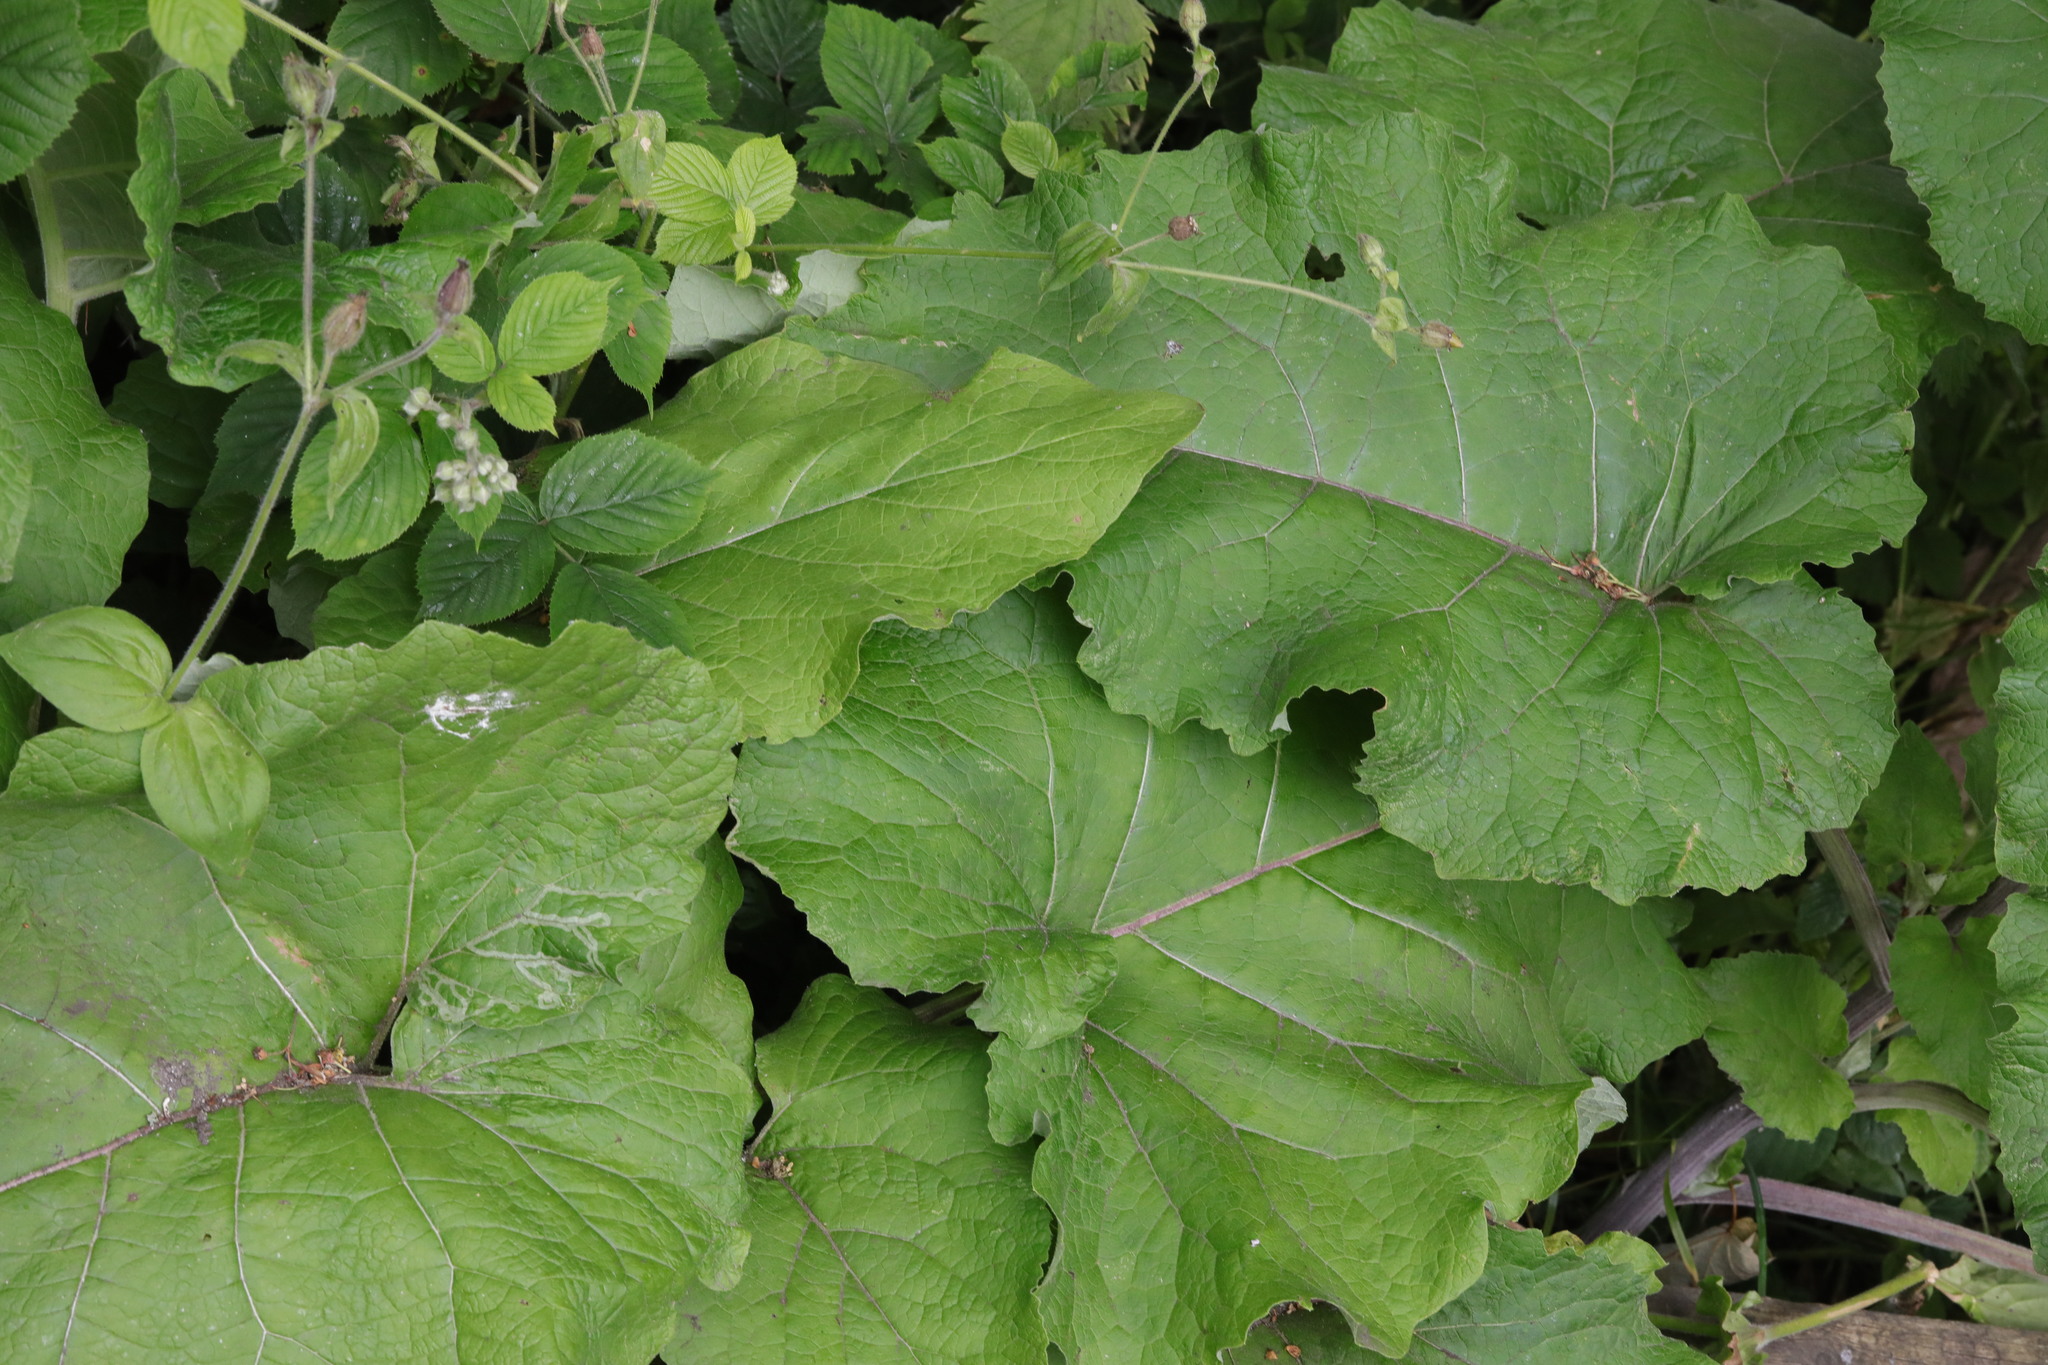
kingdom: Plantae
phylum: Tracheophyta
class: Magnoliopsida
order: Asterales
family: Asteraceae
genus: Arctium
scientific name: Arctium minus
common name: Lesser burdock
